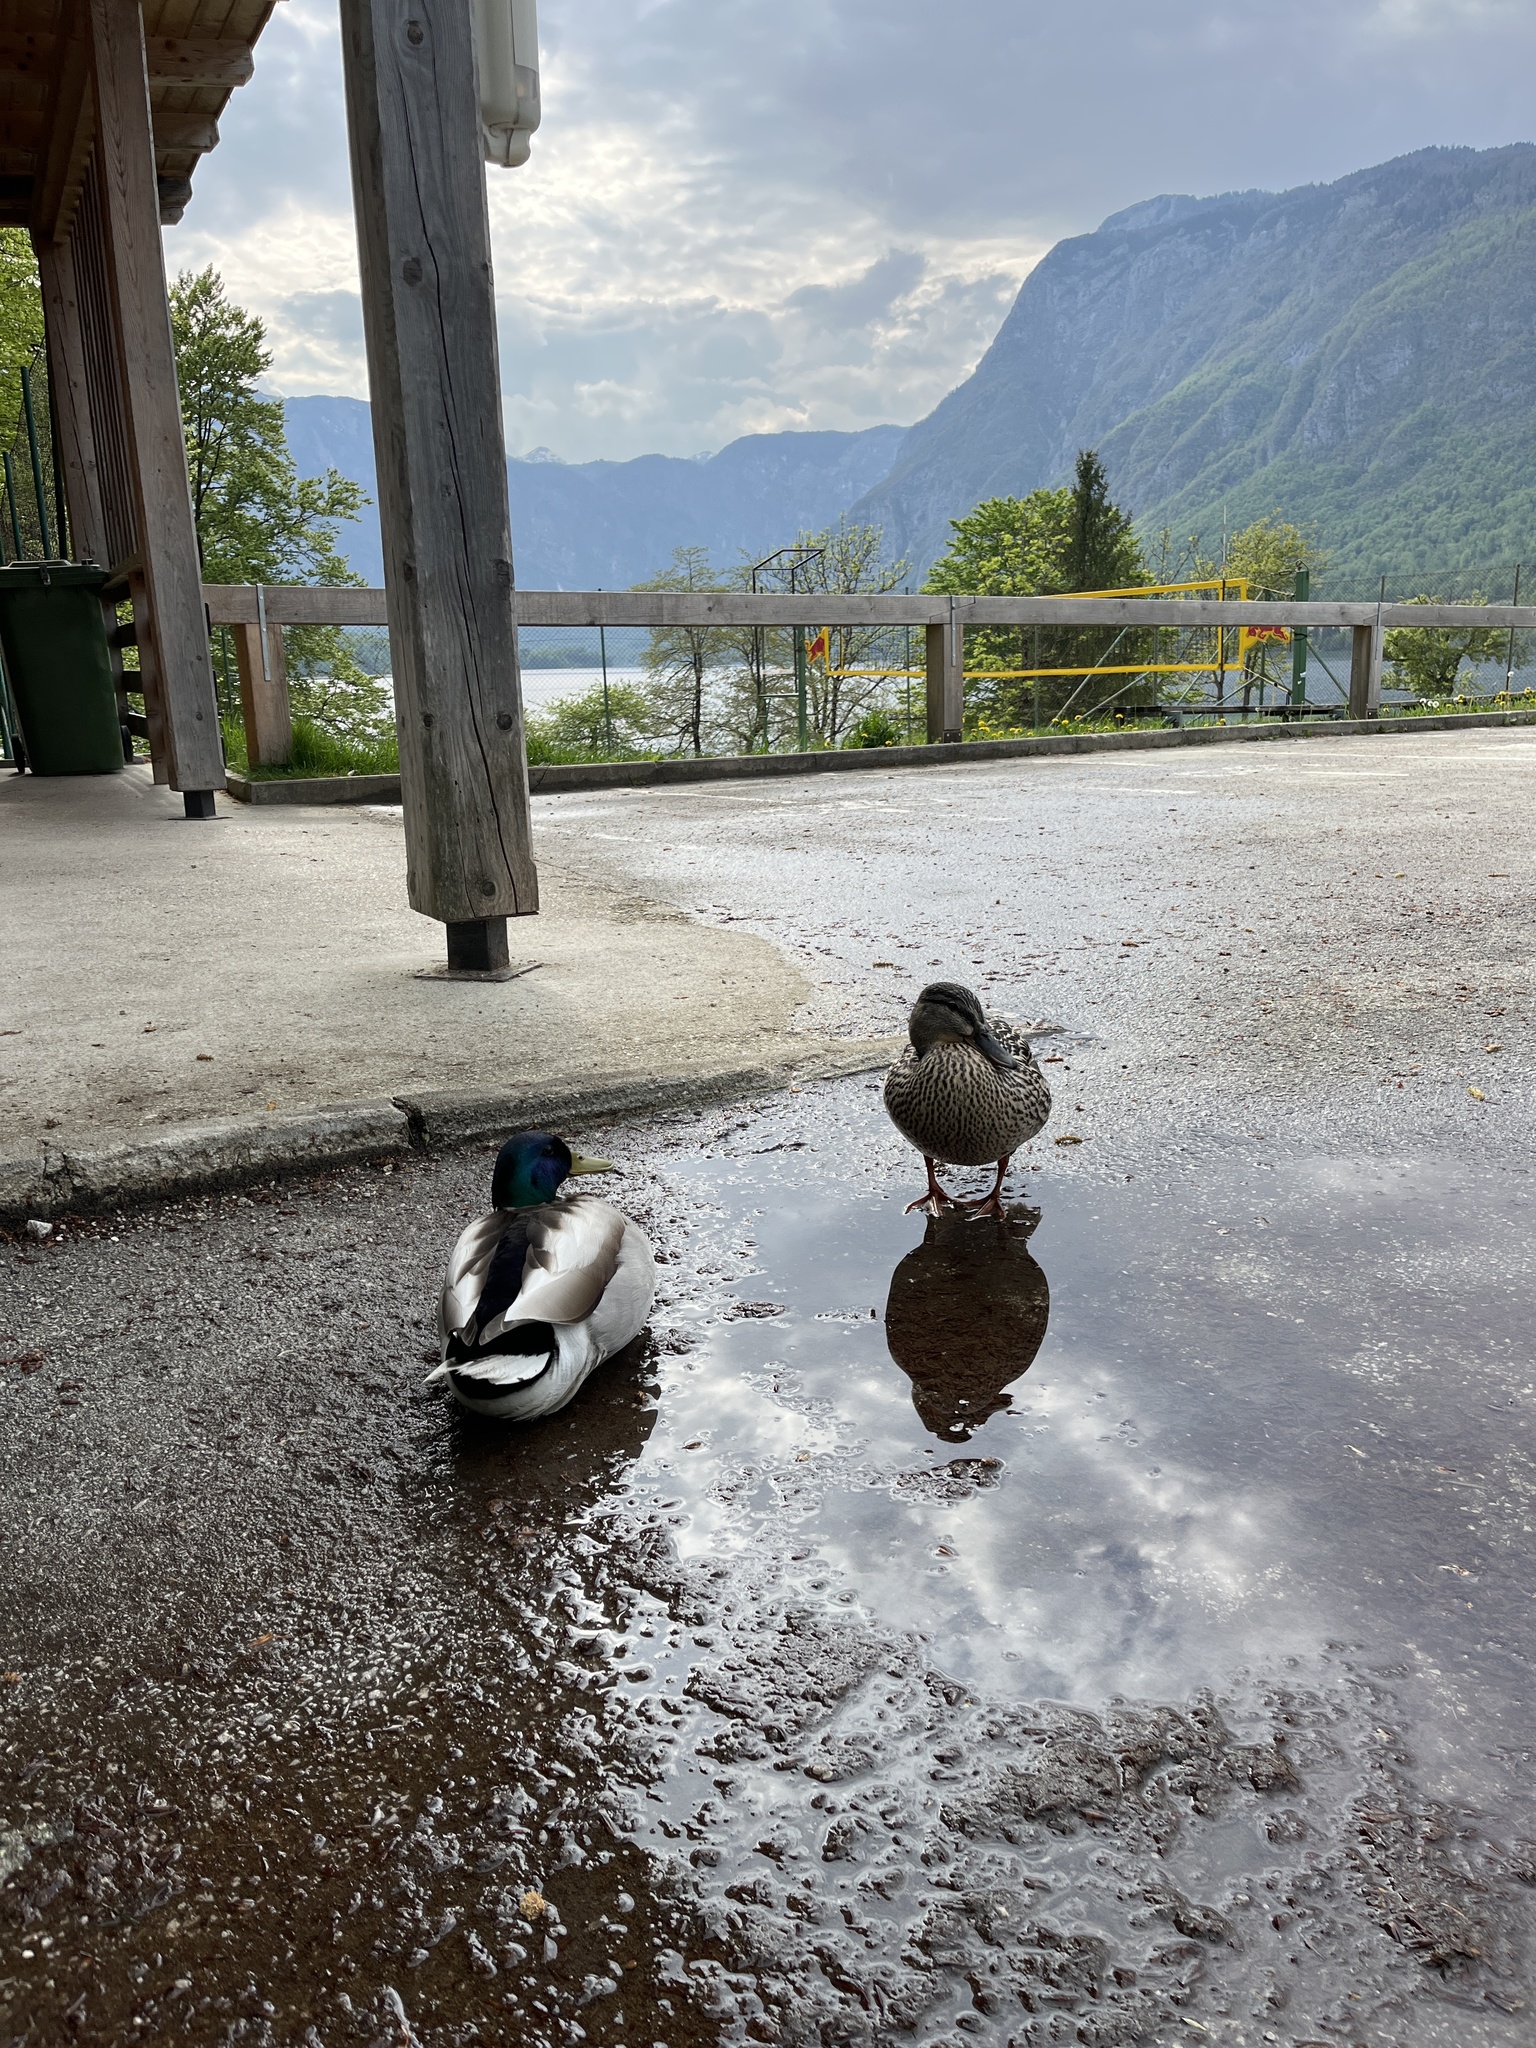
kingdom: Animalia
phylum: Chordata
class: Aves
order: Anseriformes
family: Anatidae
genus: Anas
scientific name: Anas platyrhynchos
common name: Mallard
